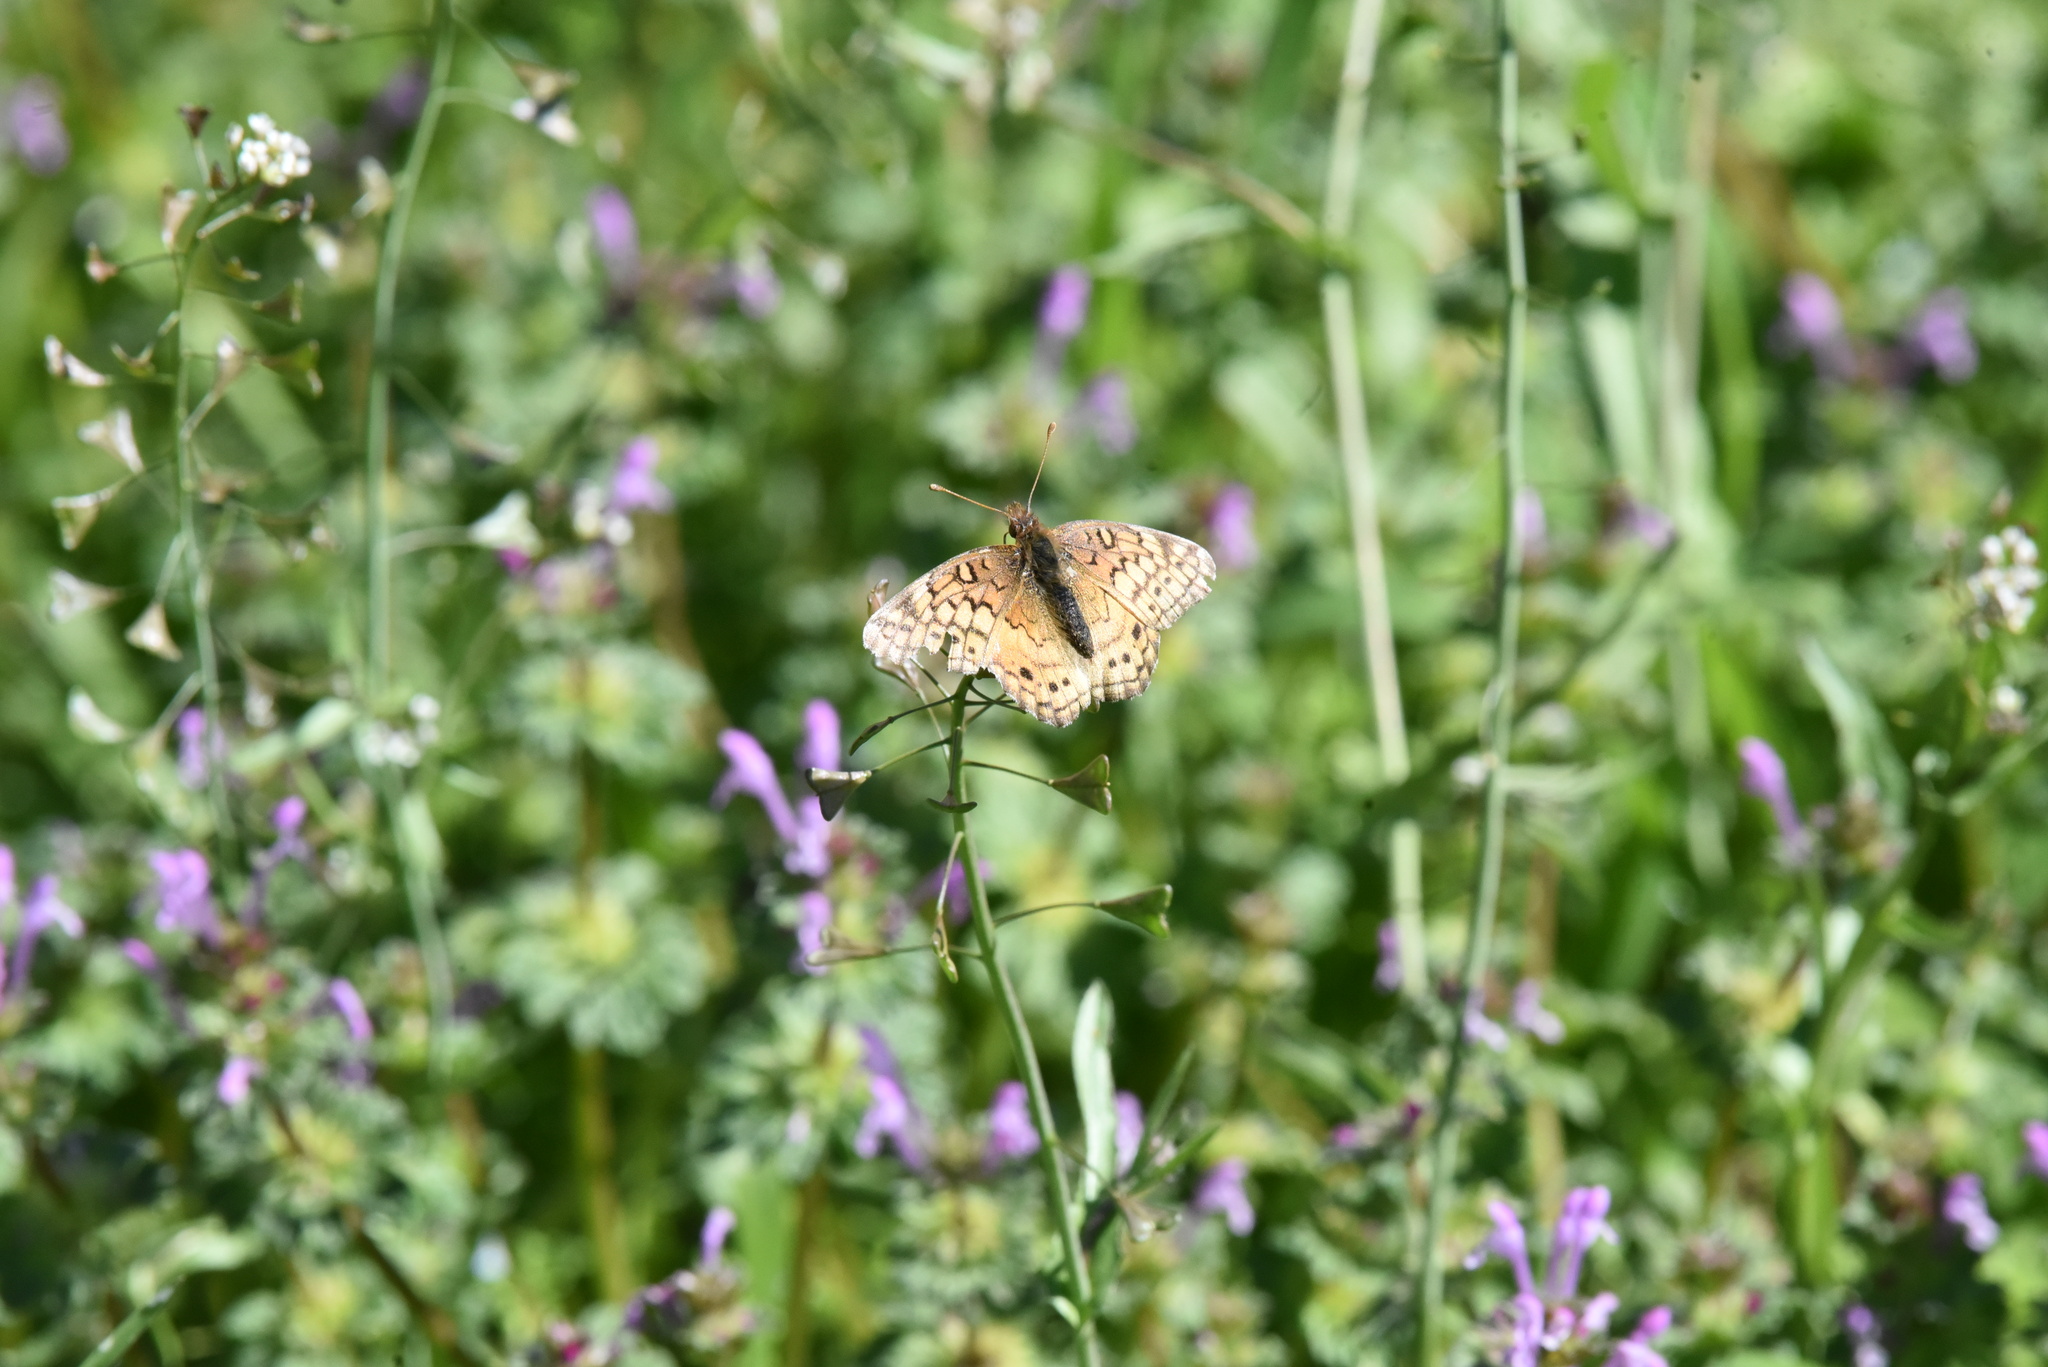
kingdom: Animalia
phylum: Arthropoda
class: Insecta
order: Lepidoptera
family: Nymphalidae
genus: Euptoieta
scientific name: Euptoieta claudia
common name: Variegated fritillary
